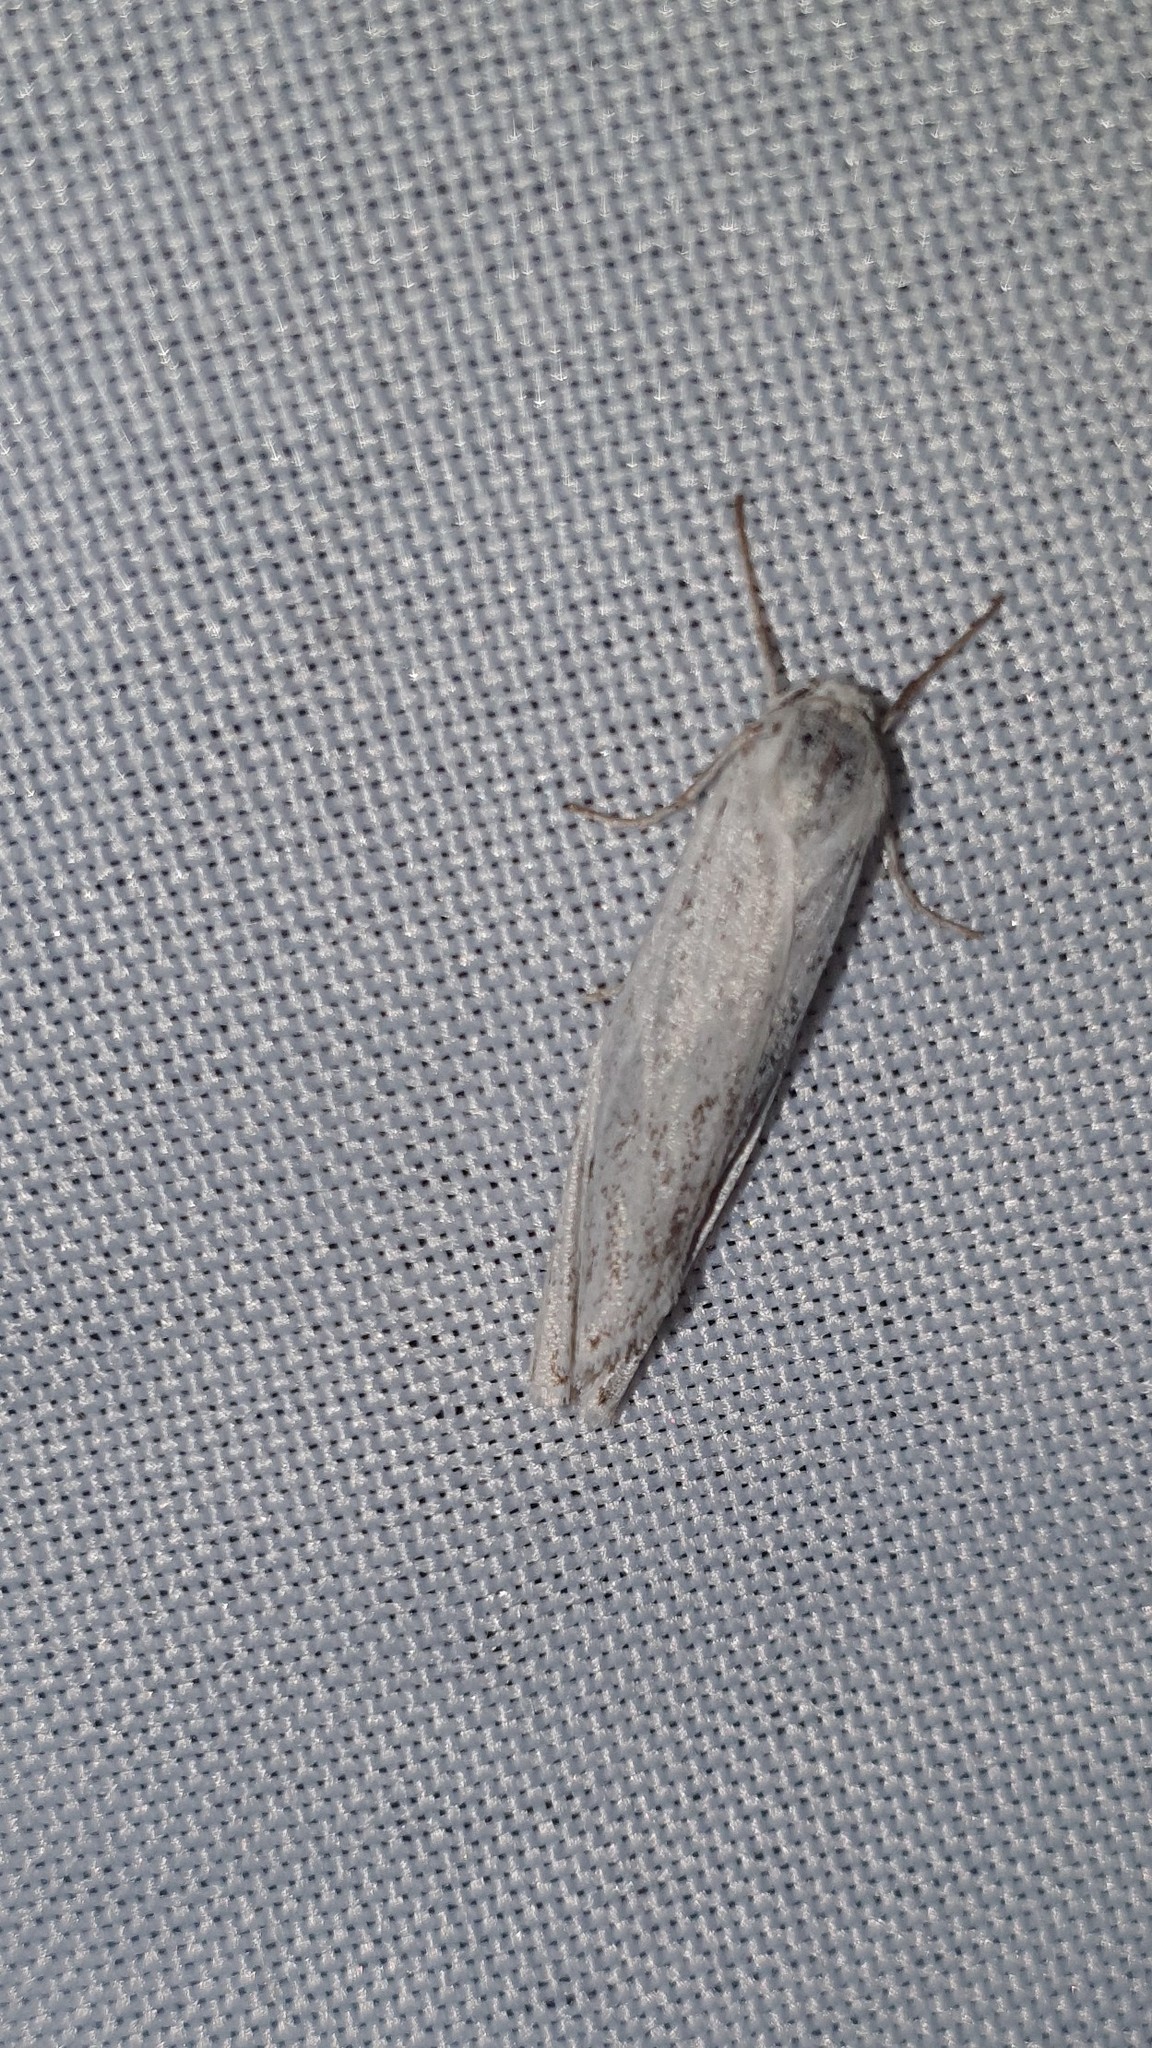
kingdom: Animalia
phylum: Arthropoda
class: Insecta
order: Lepidoptera
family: Erebidae
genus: Coscinia
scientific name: Coscinia cribraria
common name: Speckled footman
